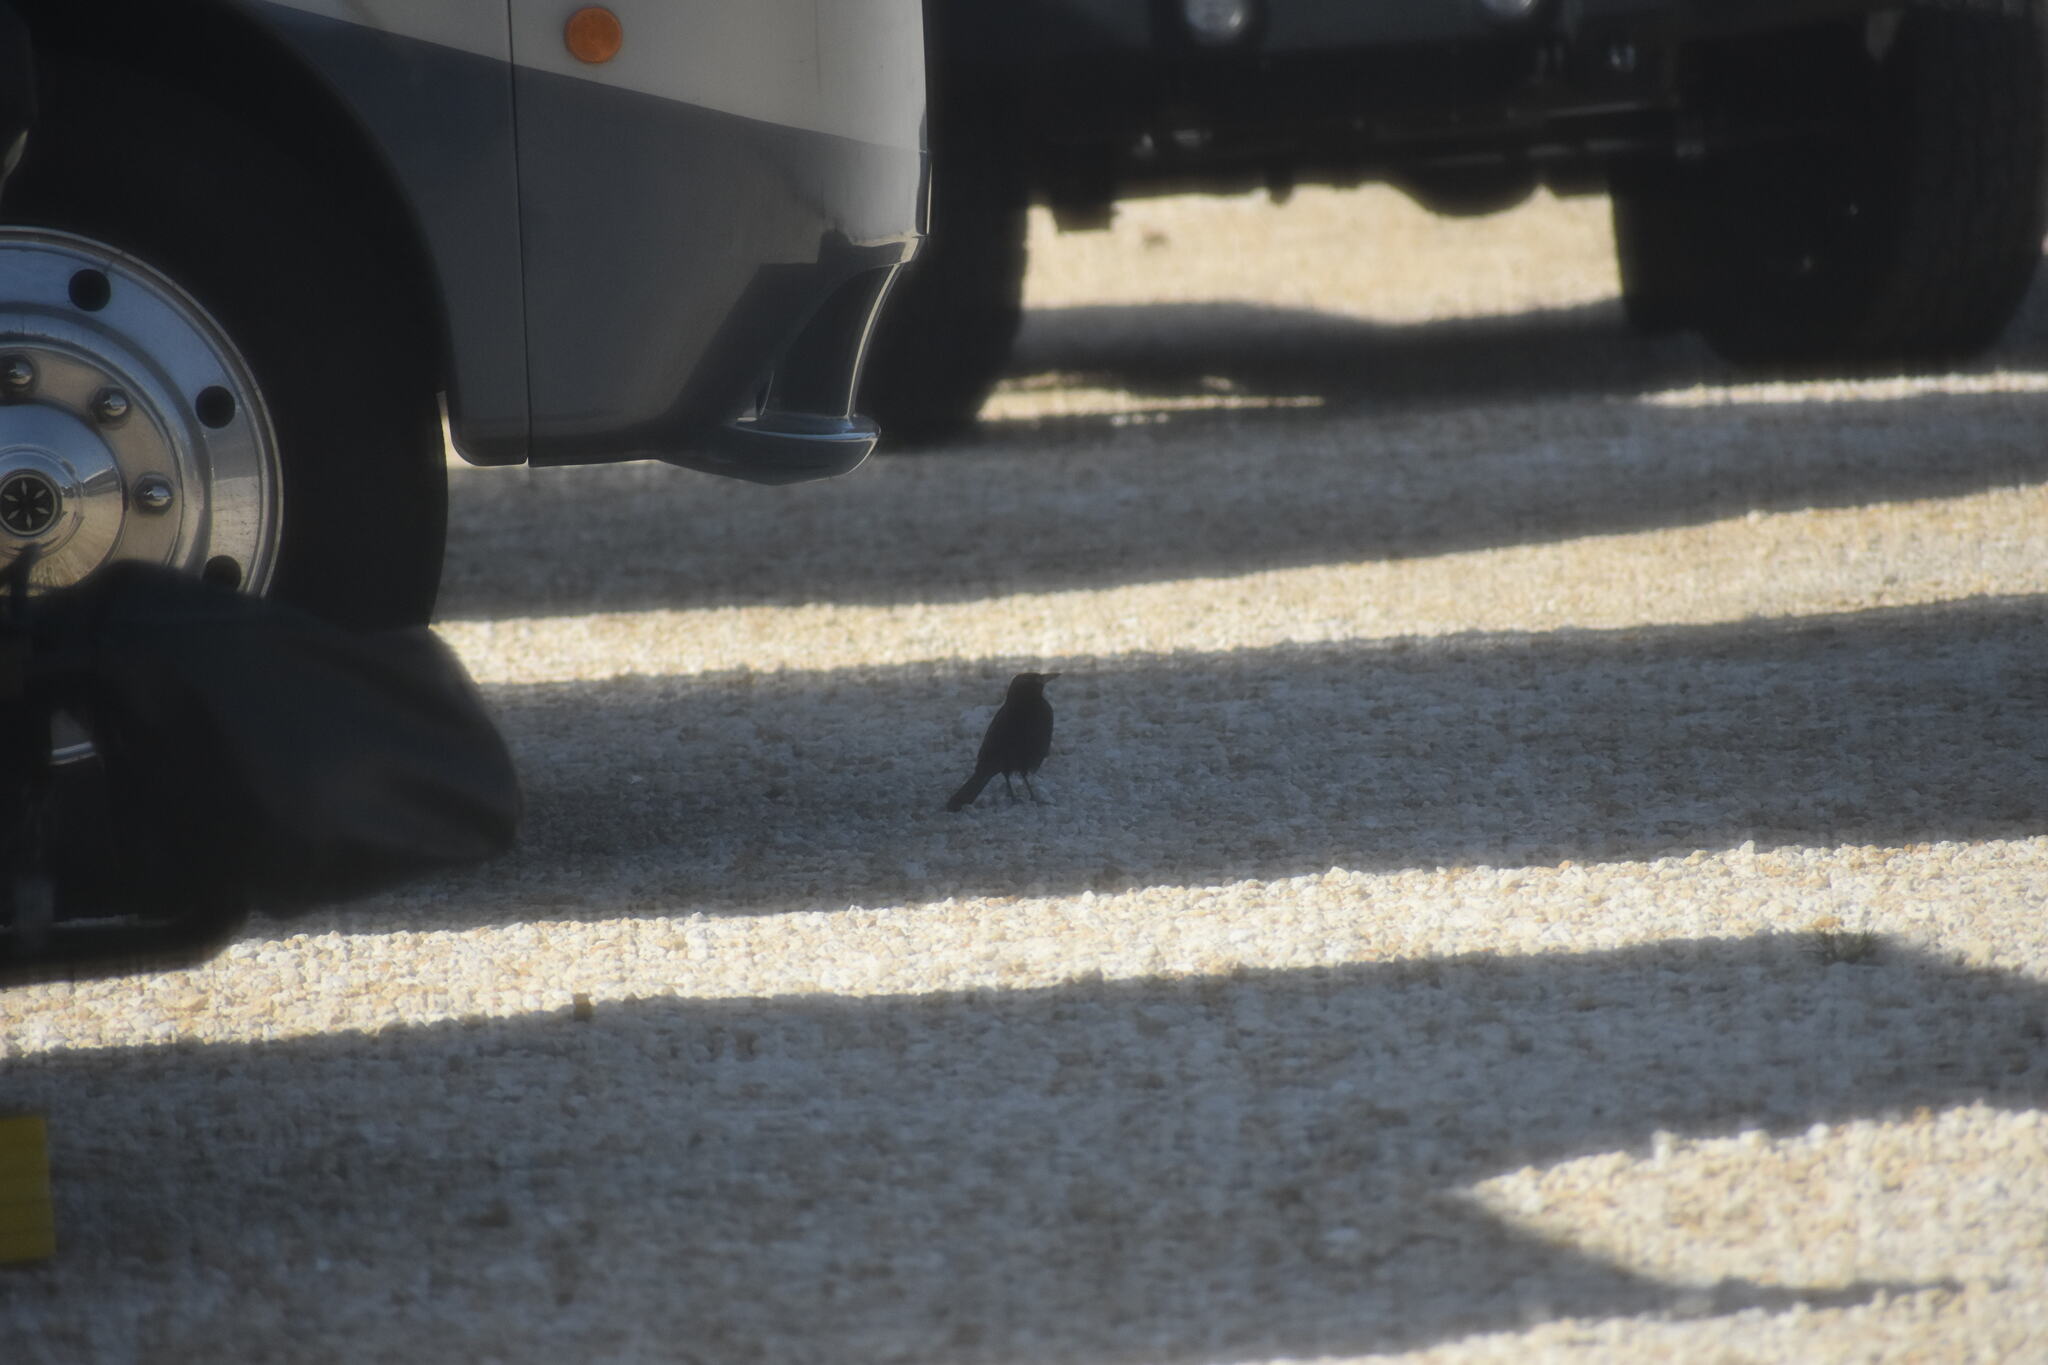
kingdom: Animalia
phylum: Chordata
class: Aves
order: Passeriformes
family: Icteridae
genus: Quiscalus
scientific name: Quiscalus quiscula
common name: Common grackle
